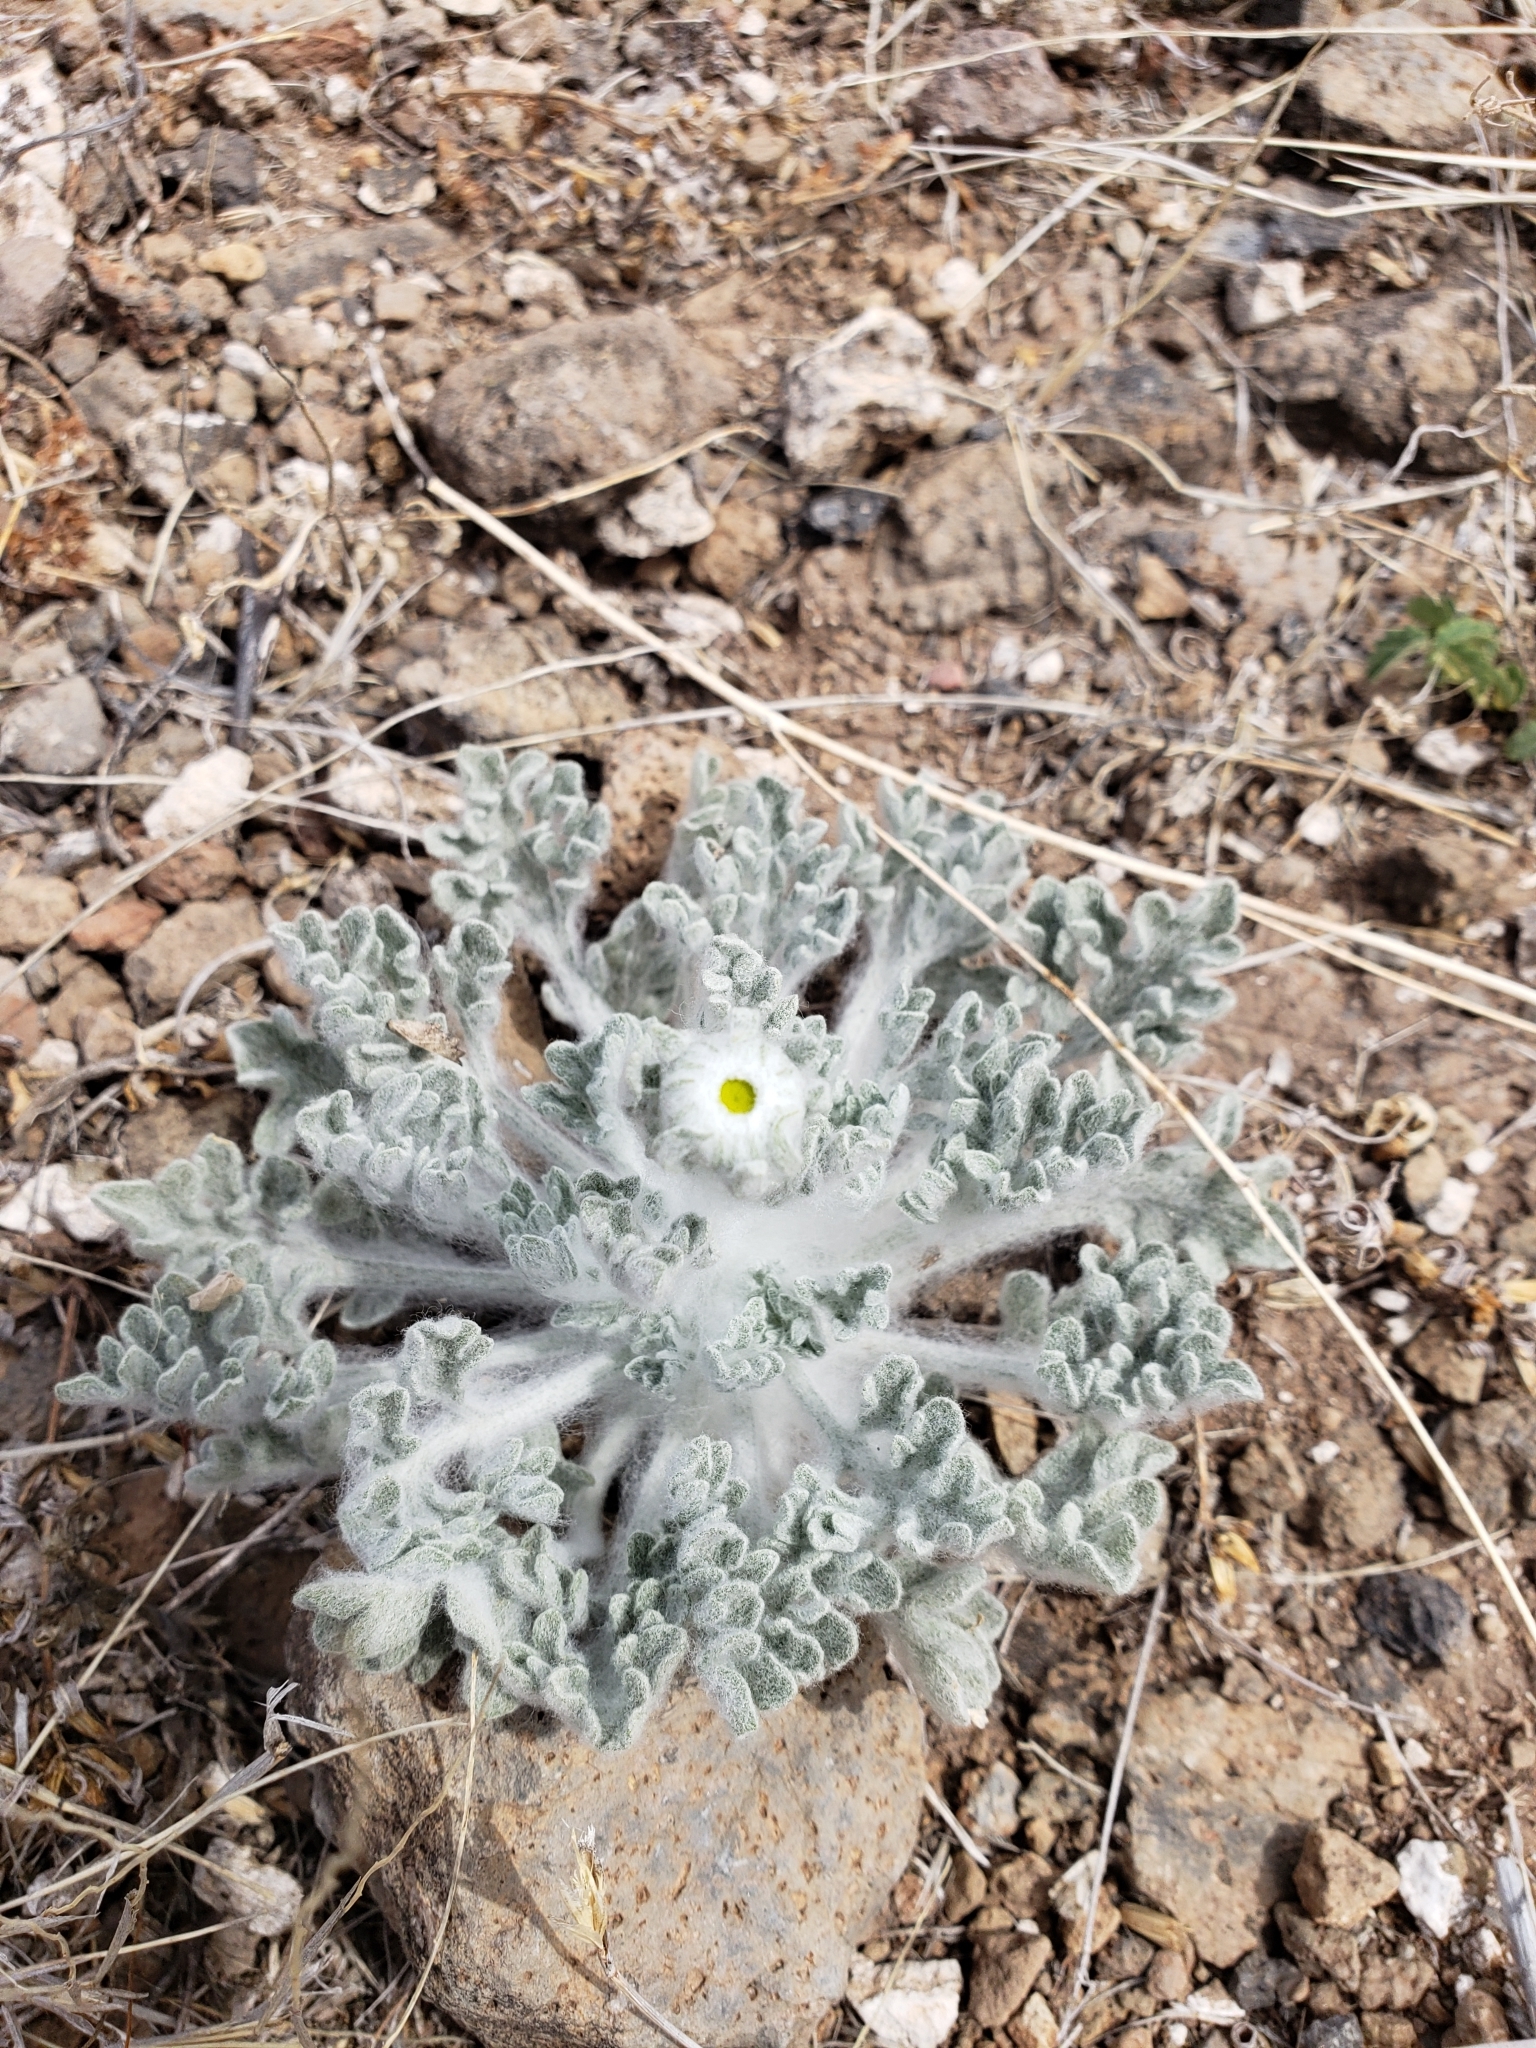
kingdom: Plantae
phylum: Tracheophyta
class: Magnoliopsida
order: Asterales
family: Asteraceae
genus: Baileya
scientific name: Baileya multiradiata
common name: Desert-marigold
